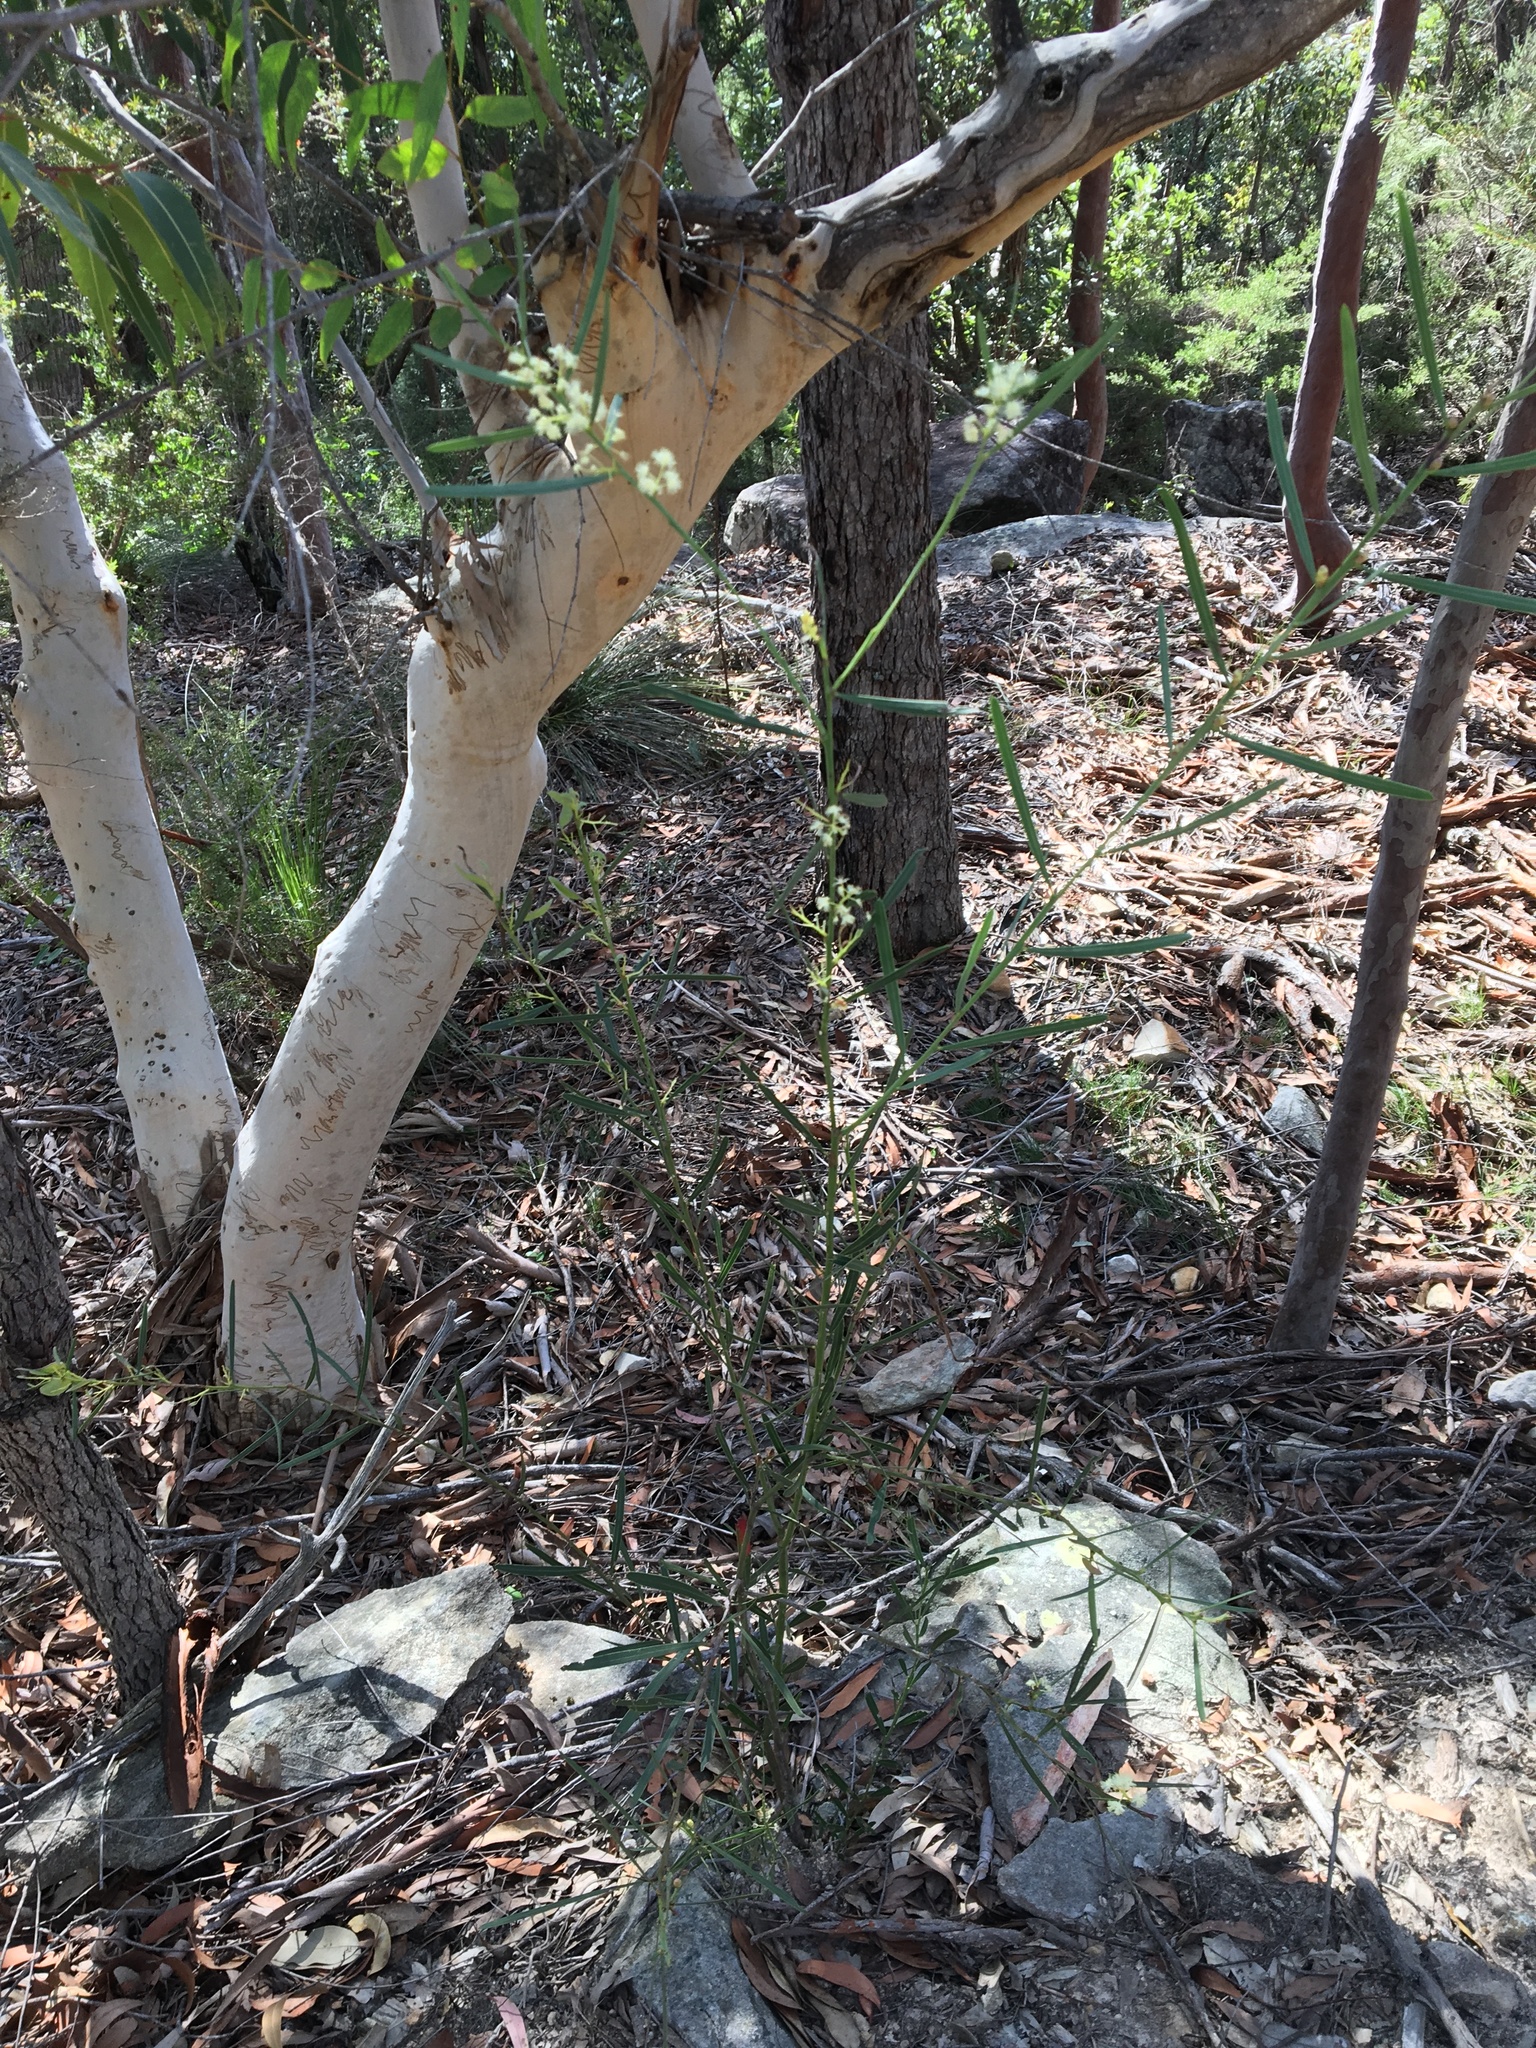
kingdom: Plantae
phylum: Tracheophyta
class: Magnoliopsida
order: Fabales
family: Fabaceae
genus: Acacia
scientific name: Acacia suaveolens
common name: Sweet acacia
